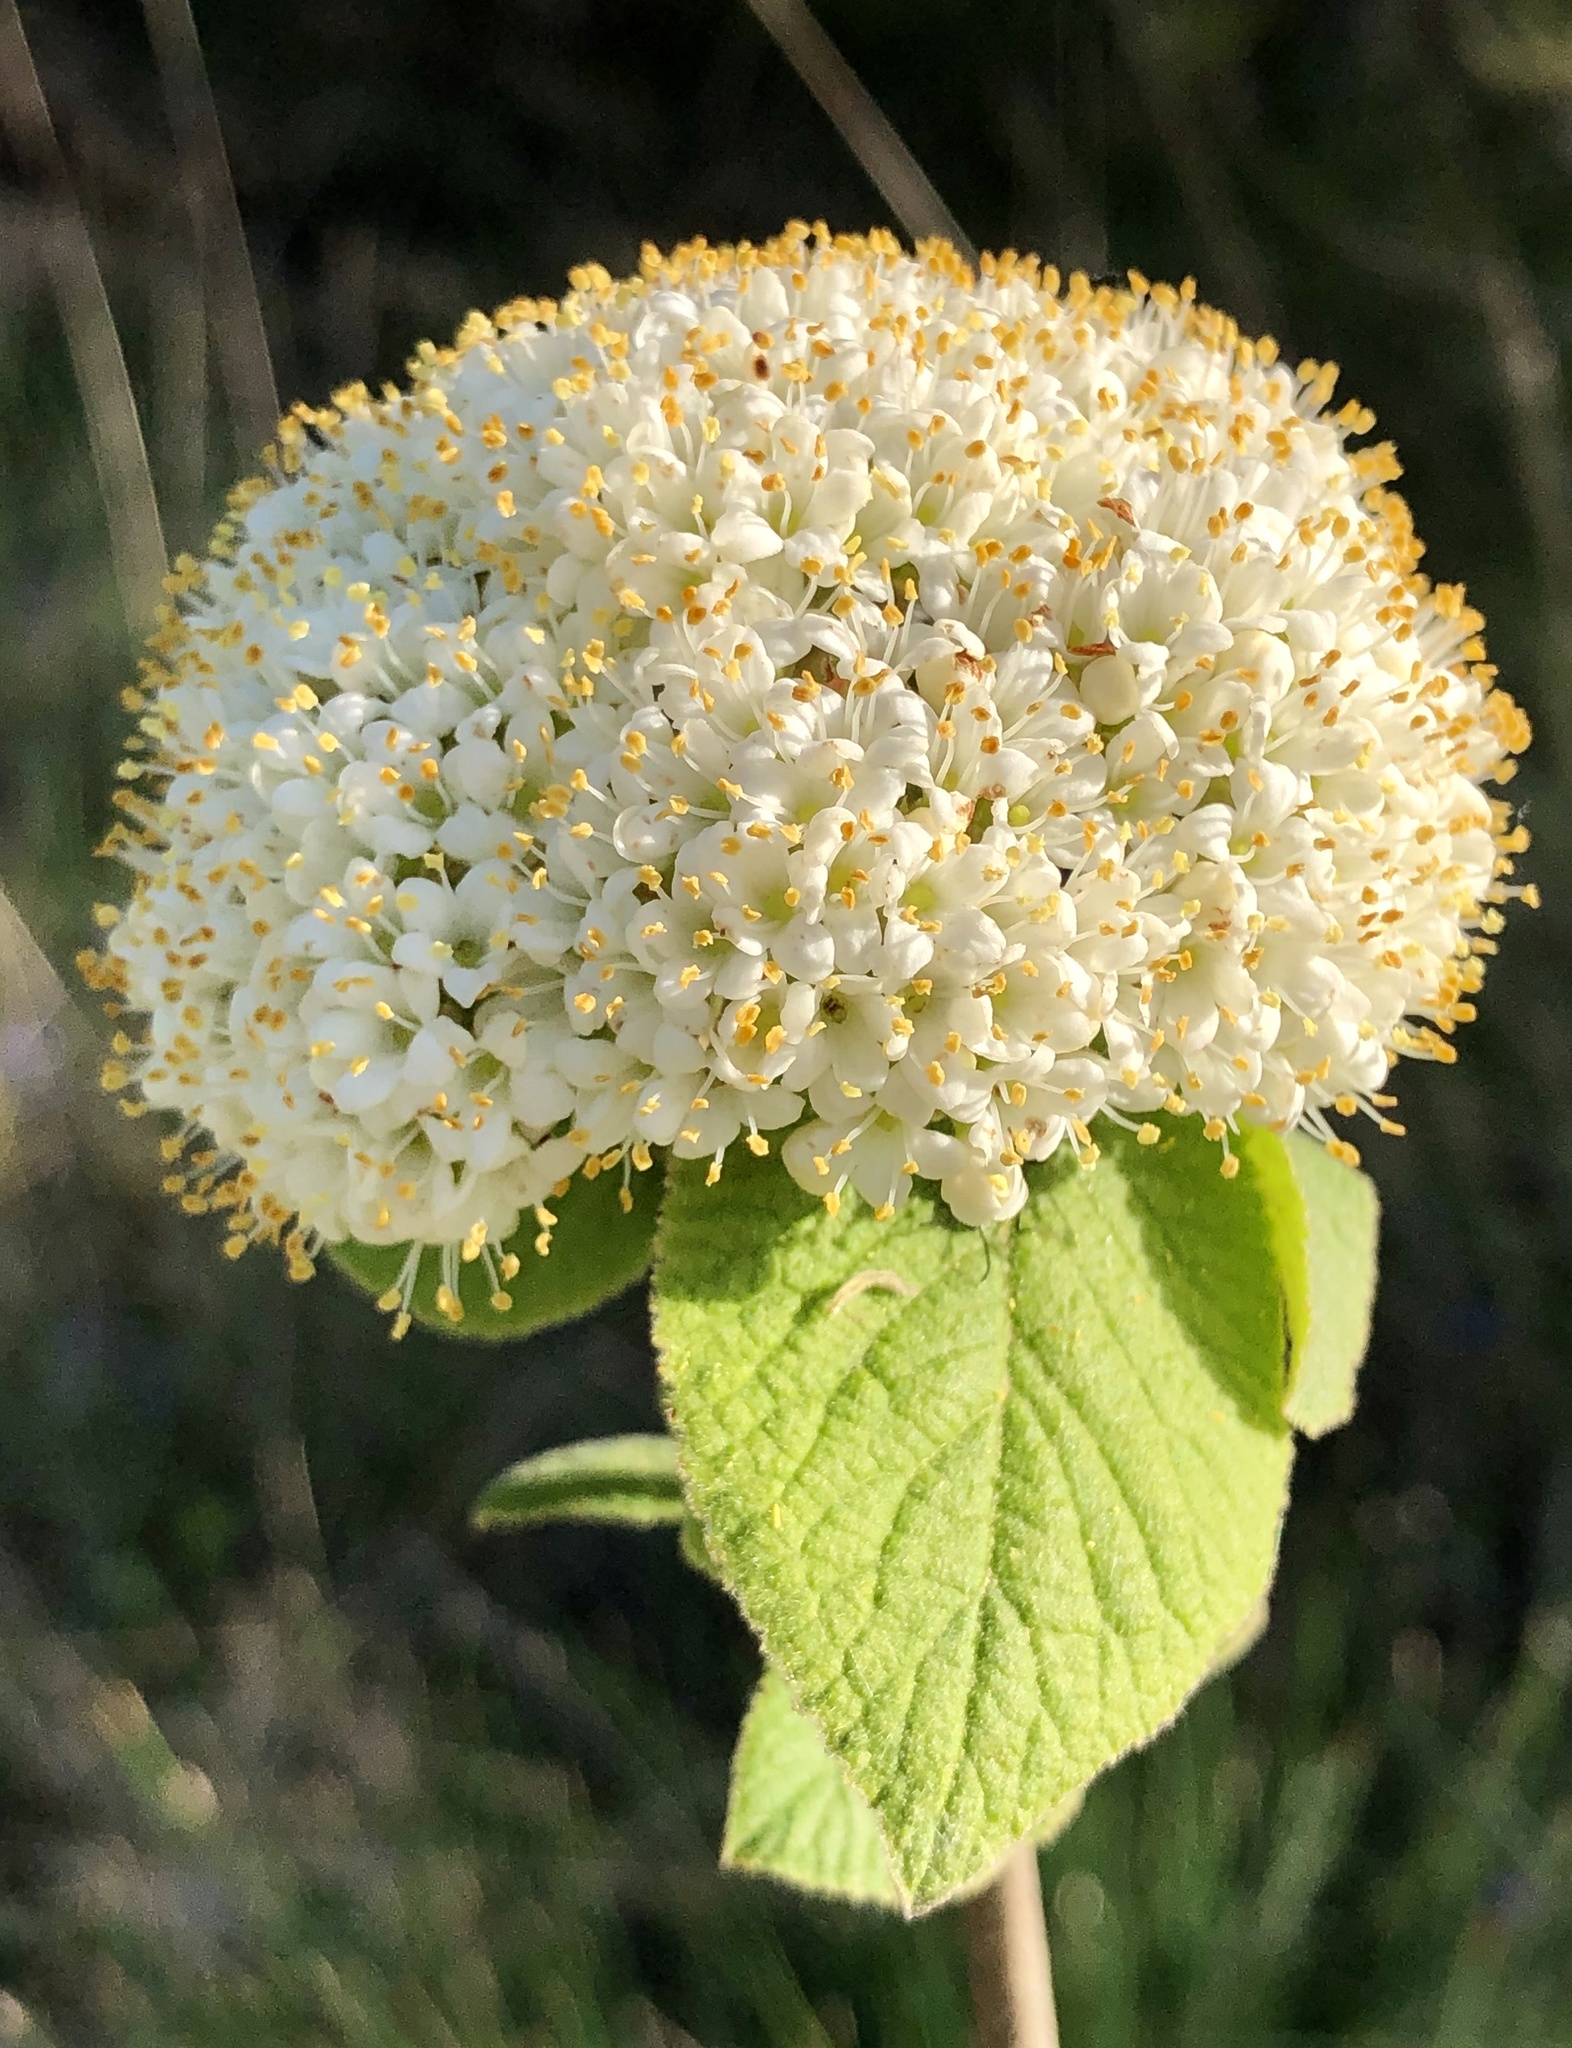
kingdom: Plantae
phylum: Tracheophyta
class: Magnoliopsida
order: Dipsacales
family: Viburnaceae
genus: Viburnum
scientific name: Viburnum lantana
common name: Wayfaring tree
